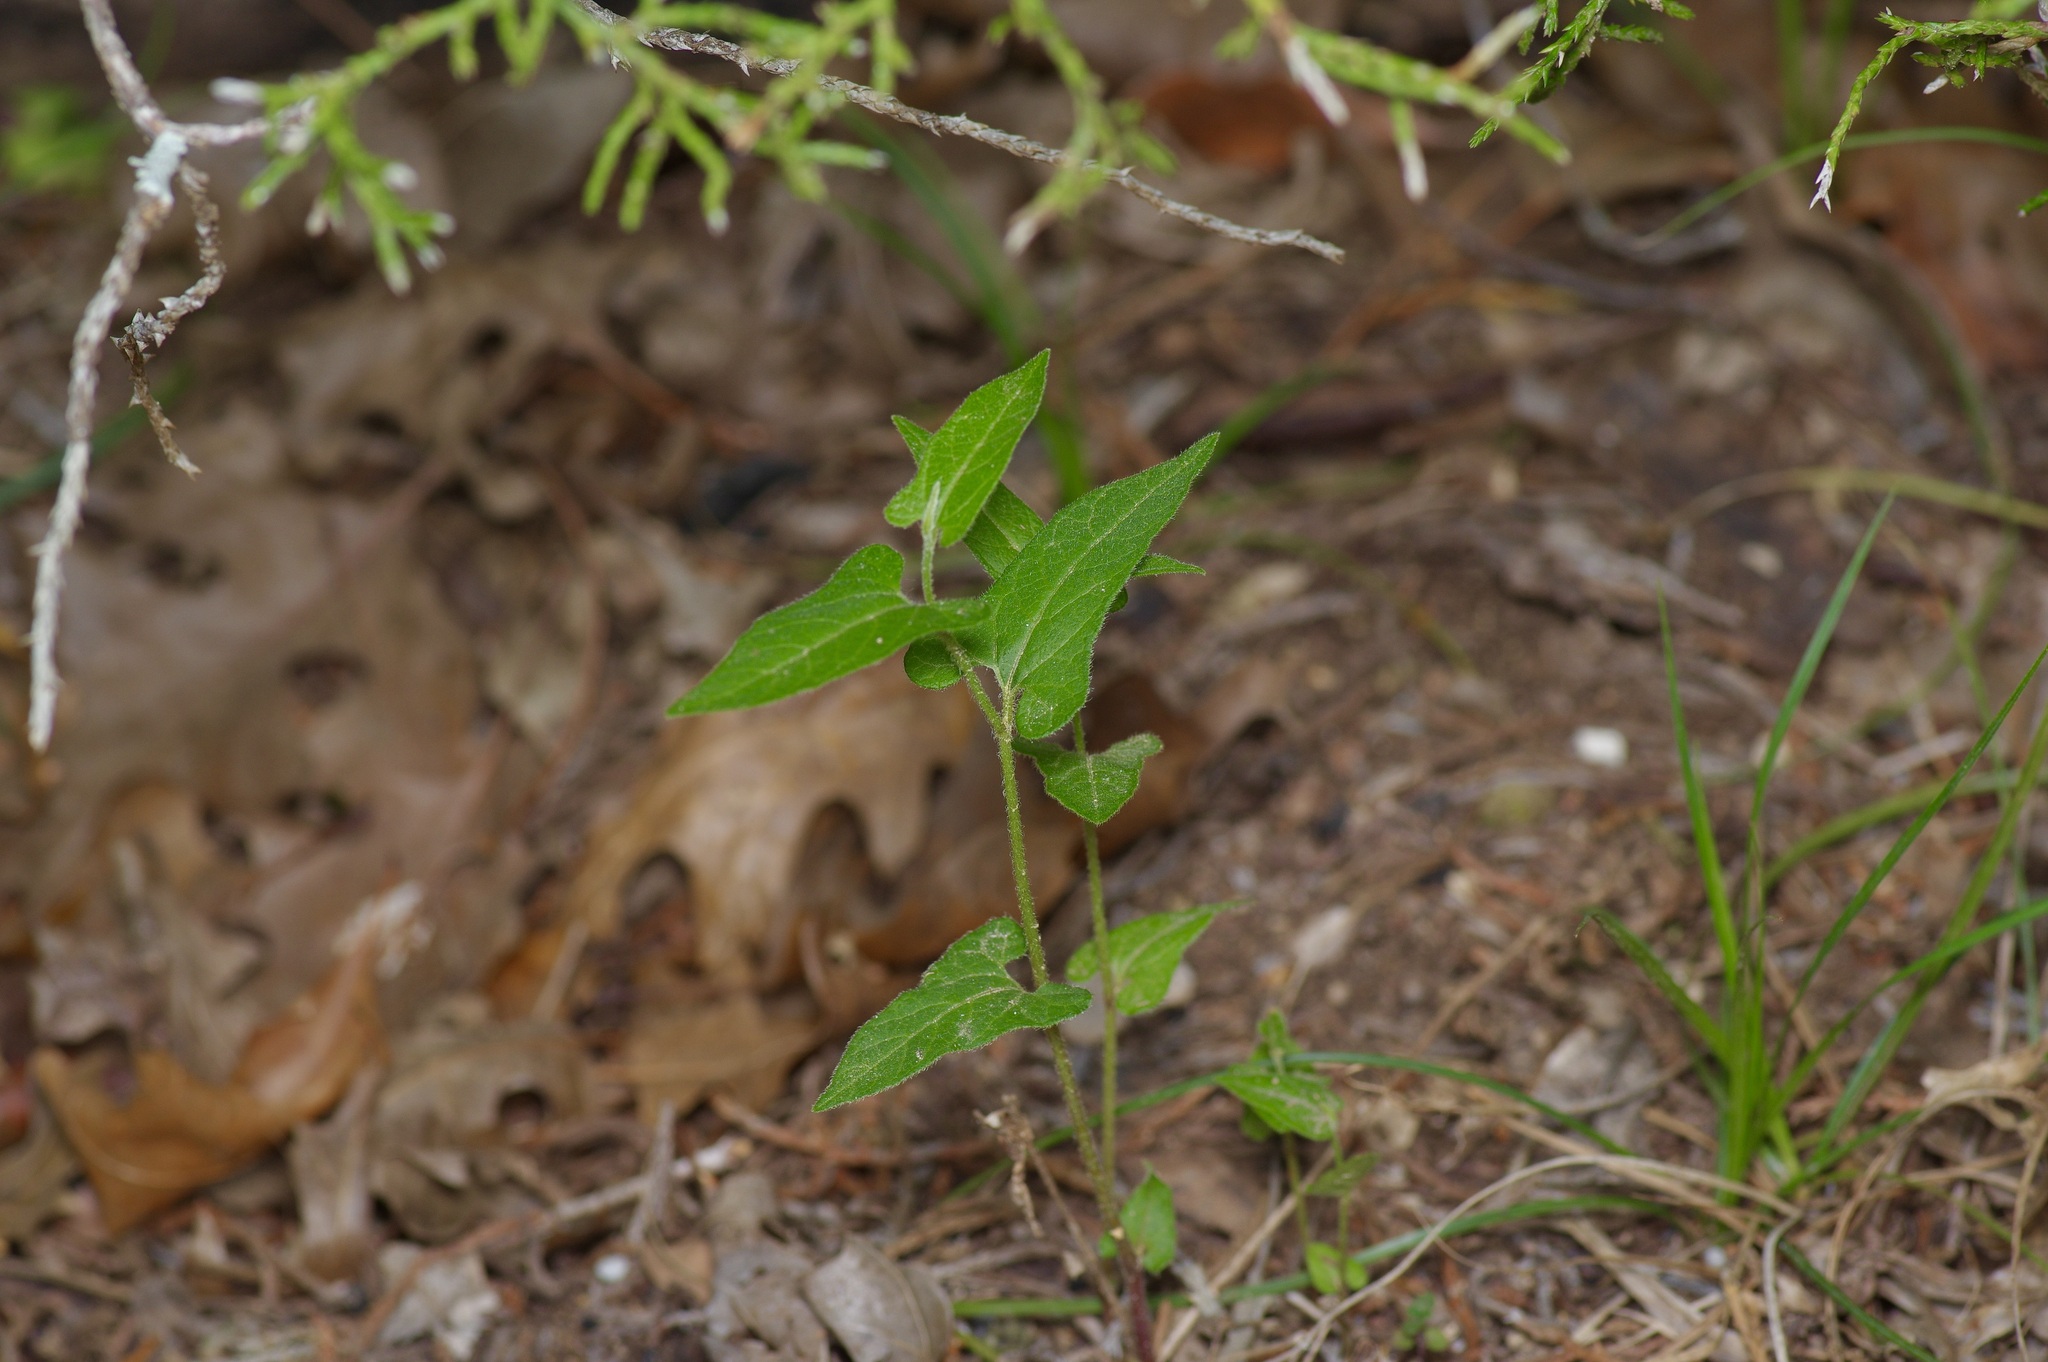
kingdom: Plantae
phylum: Tracheophyta
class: Magnoliopsida
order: Piperales
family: Aristolochiaceae
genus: Endodeca
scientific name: Endodeca serpentaria
